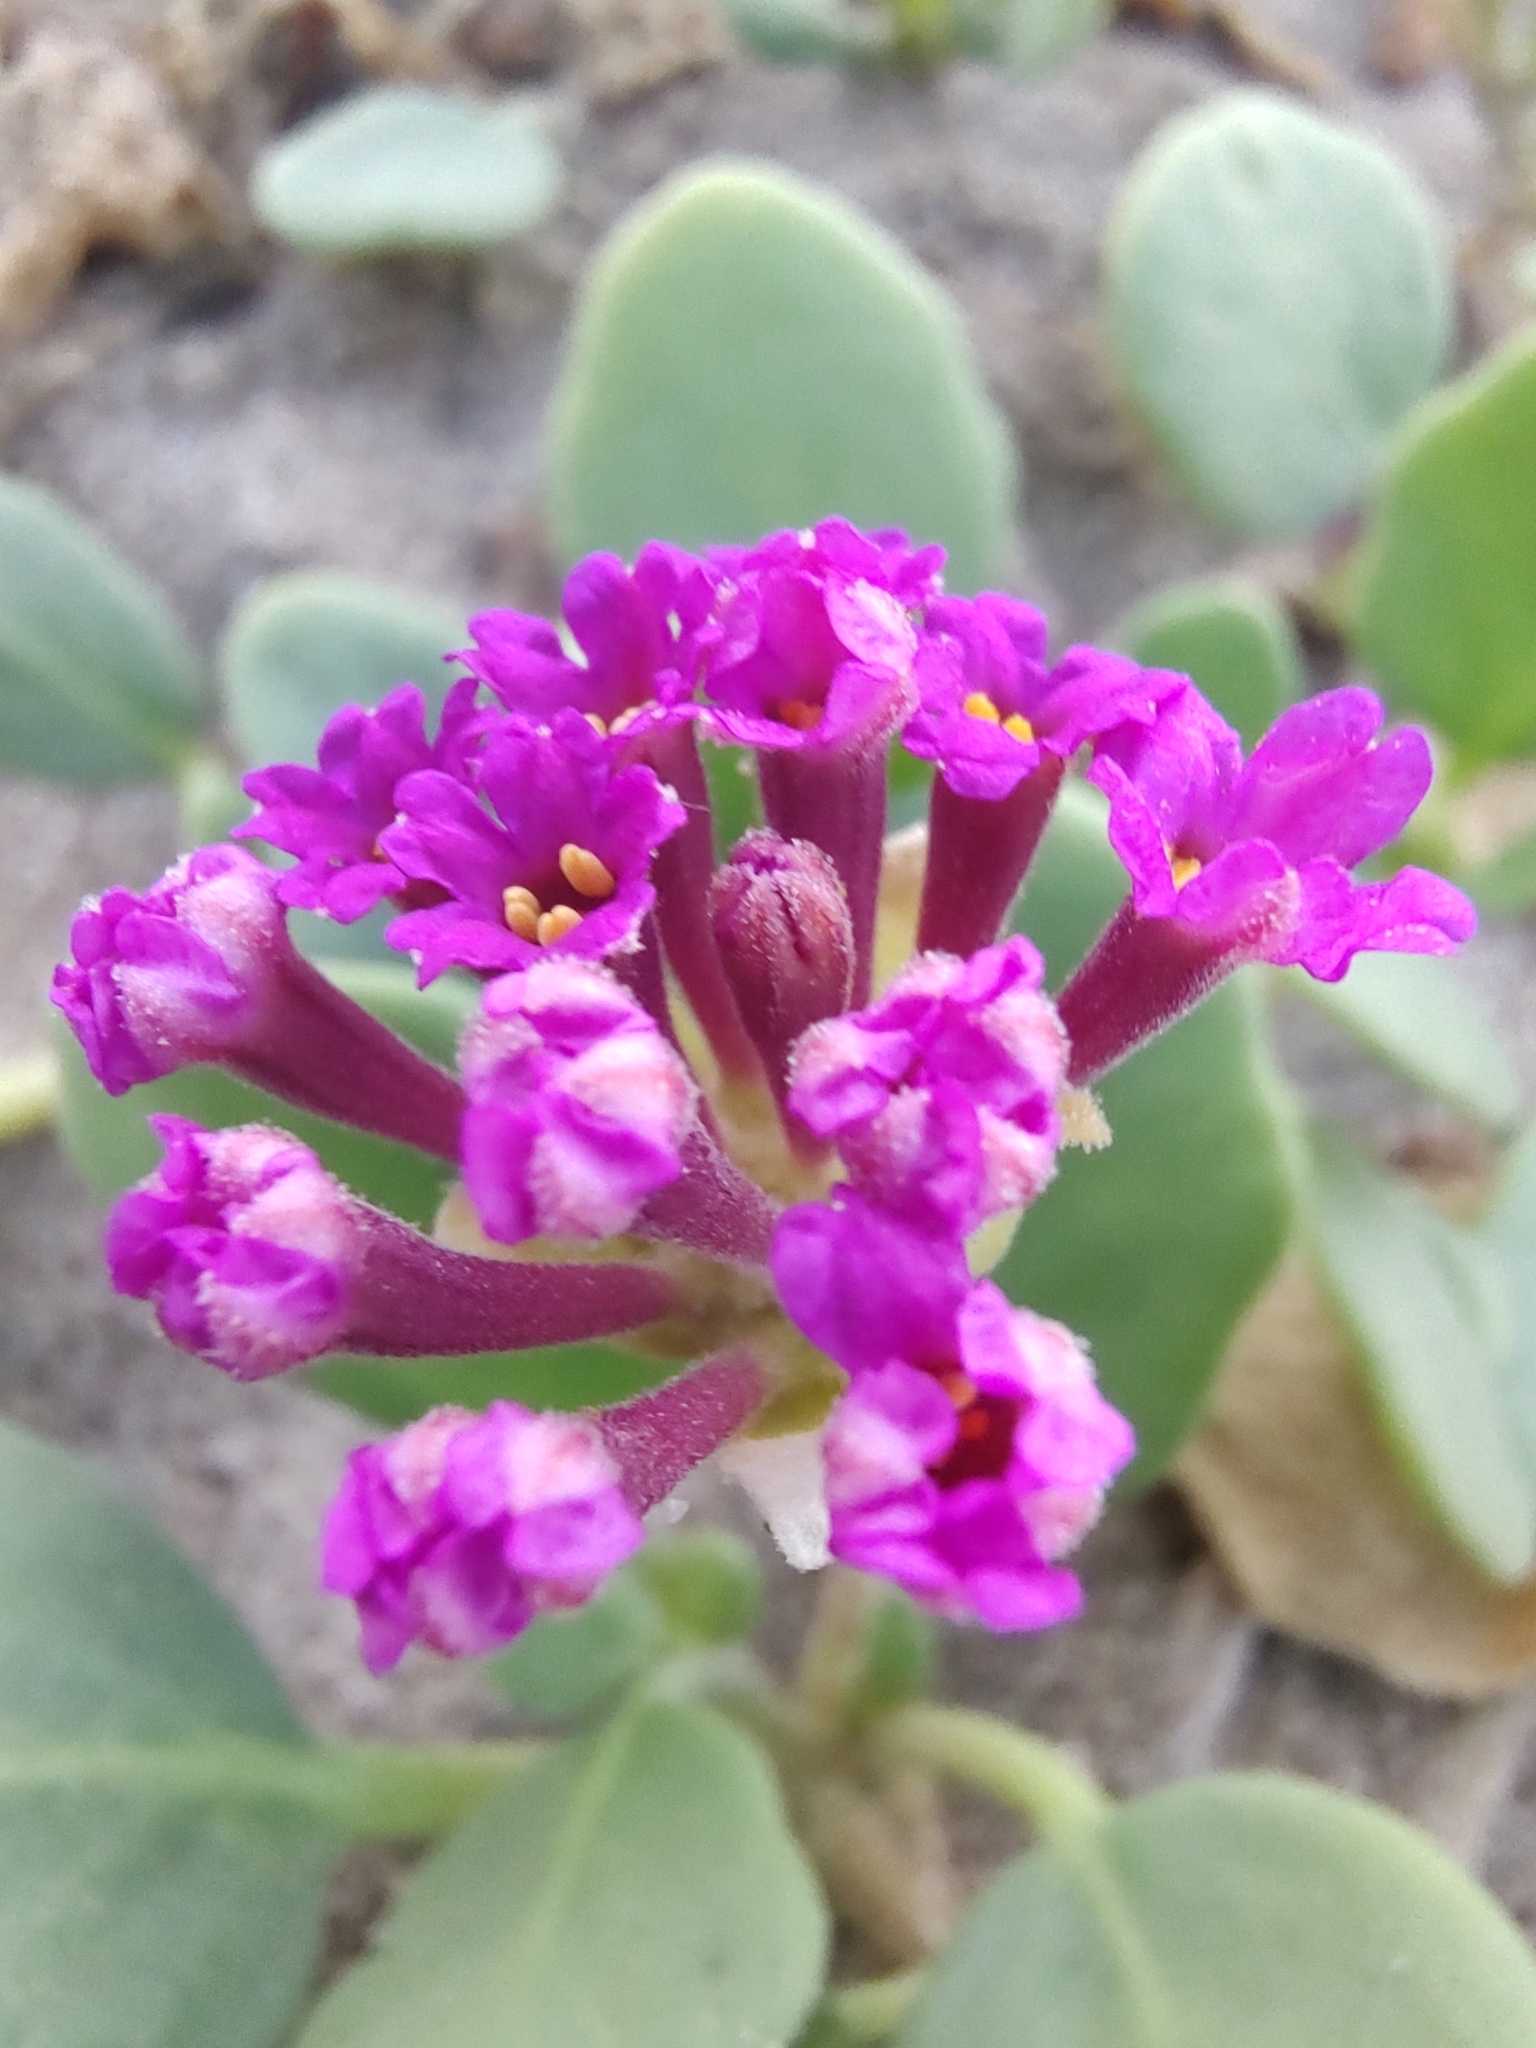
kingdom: Plantae
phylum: Tracheophyta
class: Magnoliopsida
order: Caryophyllales
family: Nyctaginaceae
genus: Abronia
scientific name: Abronia maritima
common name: Red sand-verbena
